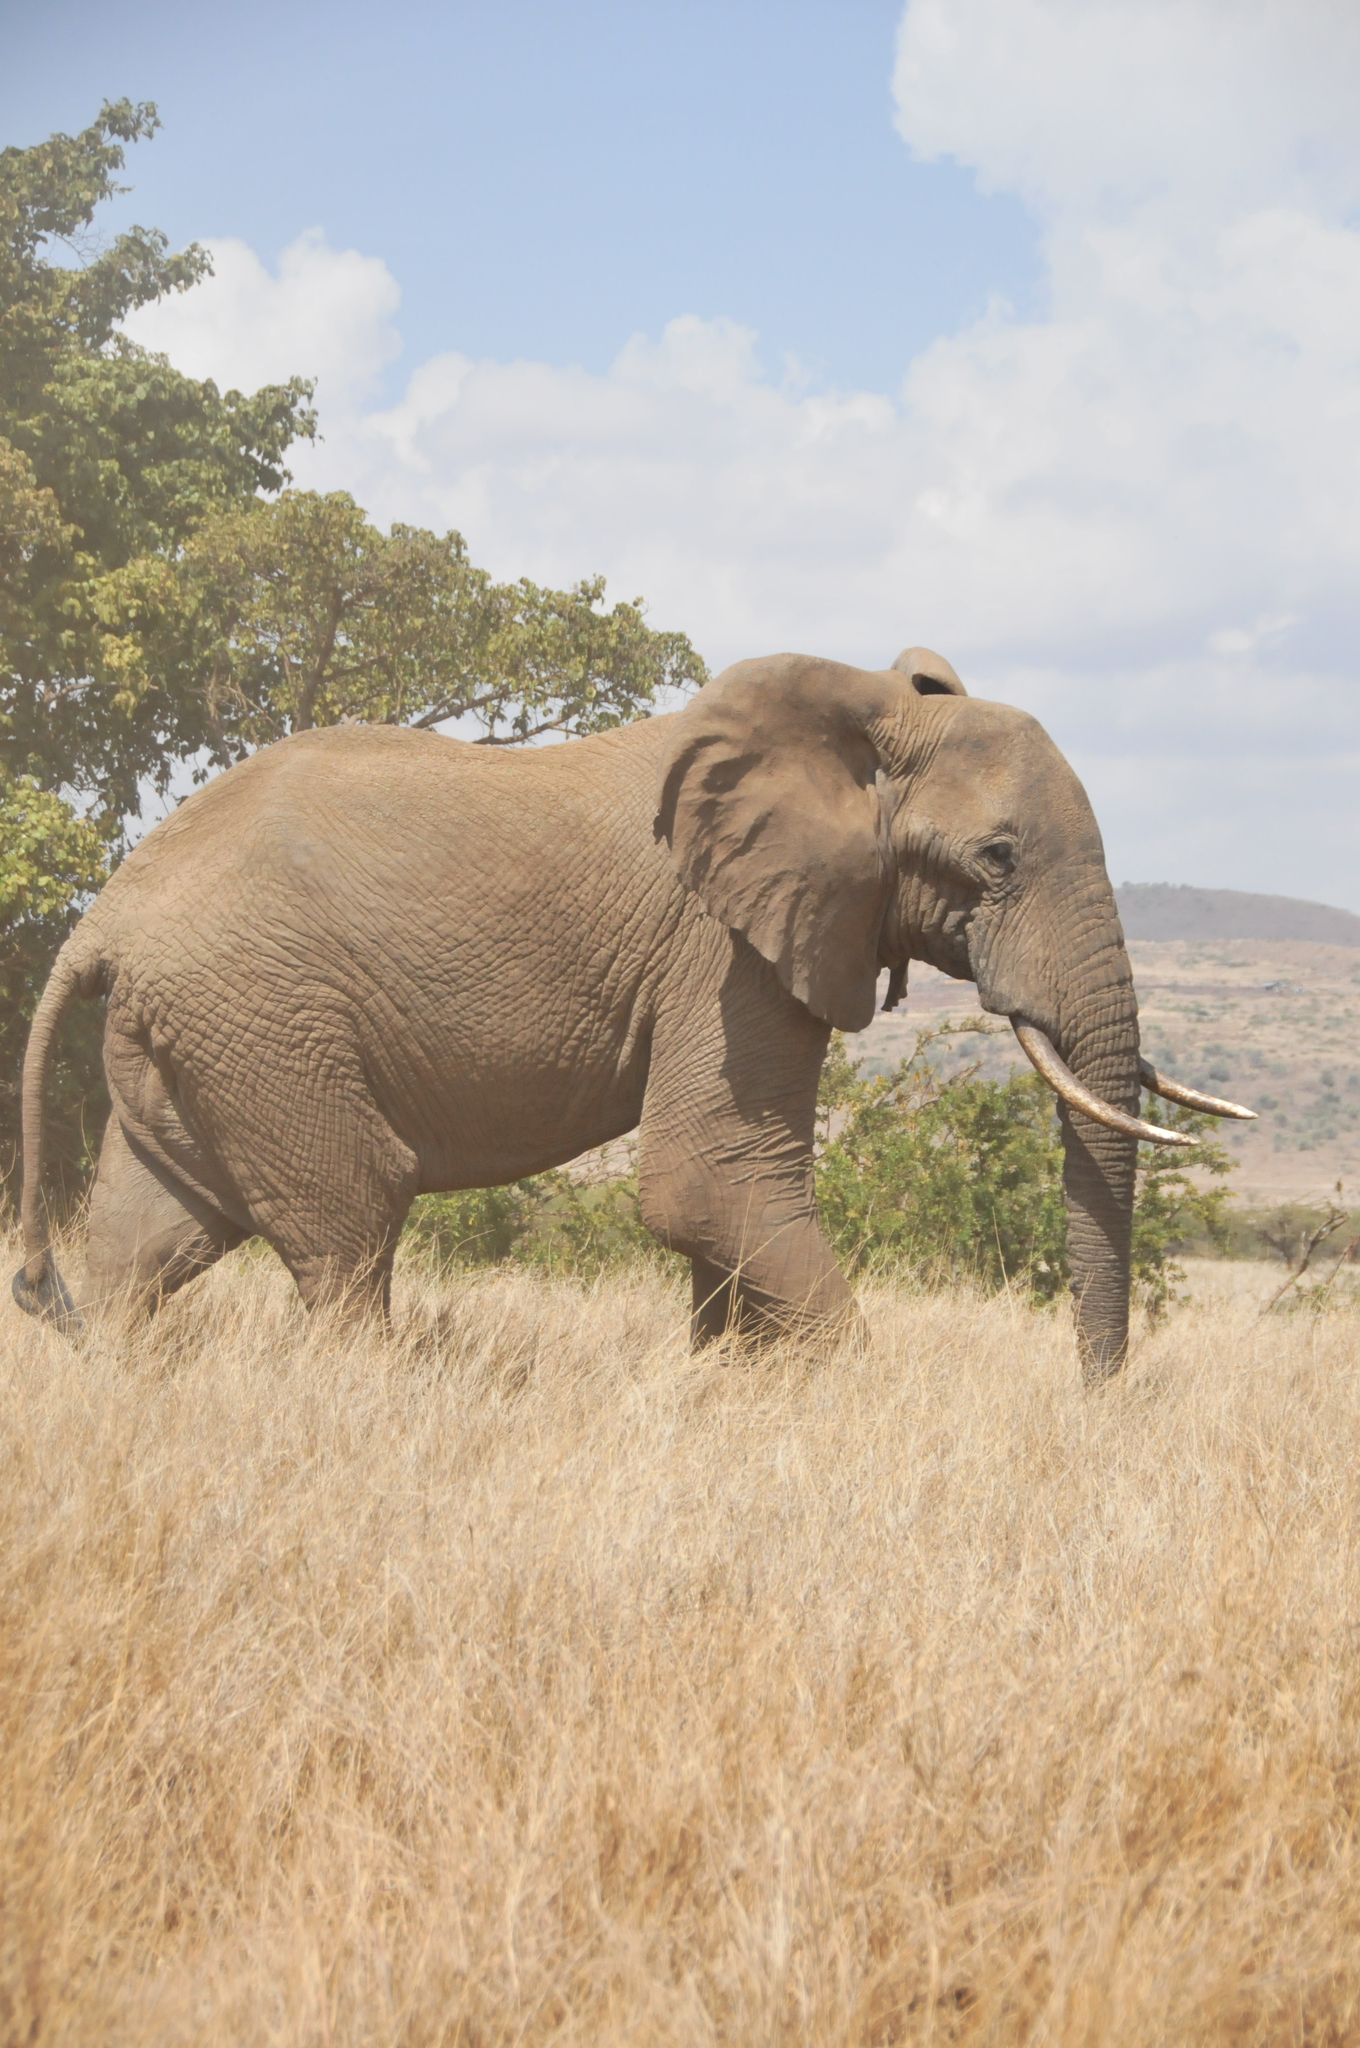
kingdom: Animalia
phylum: Chordata
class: Mammalia
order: Proboscidea
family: Elephantidae
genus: Loxodonta
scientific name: Loxodonta africana
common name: African elephant
